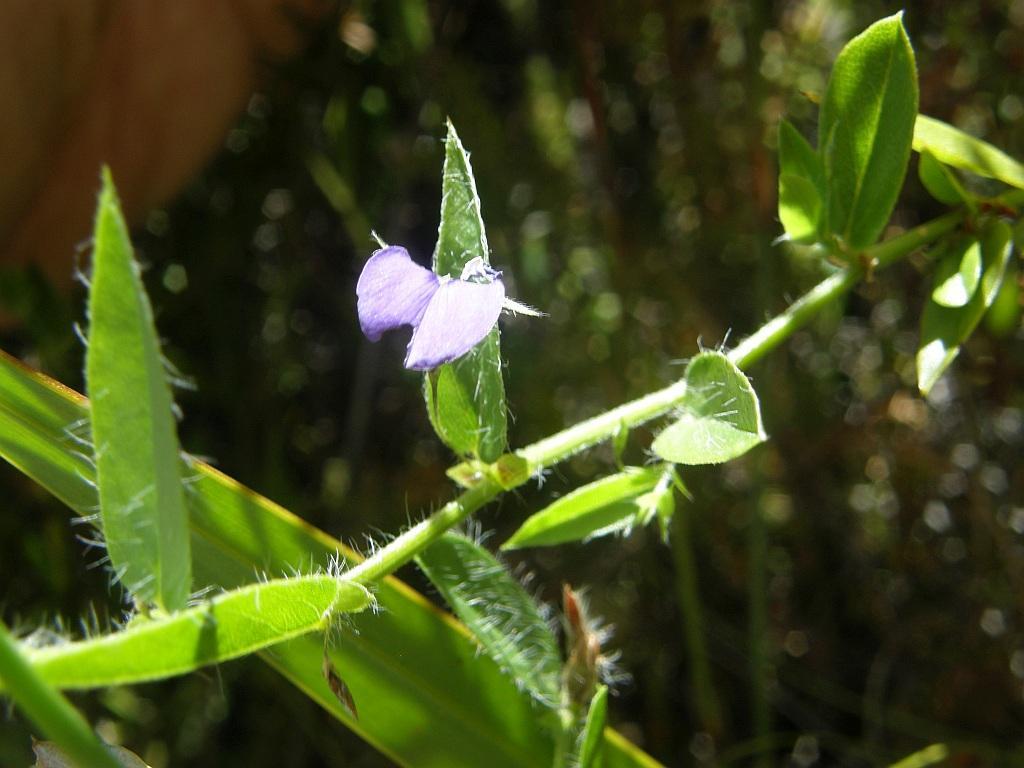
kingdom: Plantae
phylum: Tracheophyta
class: Magnoliopsida
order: Fabales
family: Fabaceae
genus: Psoralea
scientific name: Psoralea asarina
